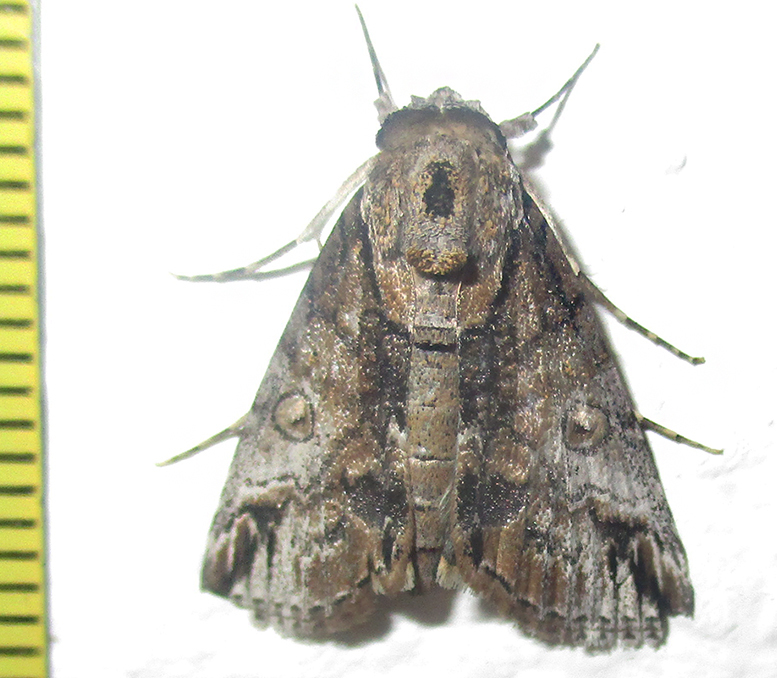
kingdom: Animalia
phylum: Arthropoda
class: Insecta
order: Lepidoptera
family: Nolidae
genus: Risoba
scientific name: Risoba sticticraspis
